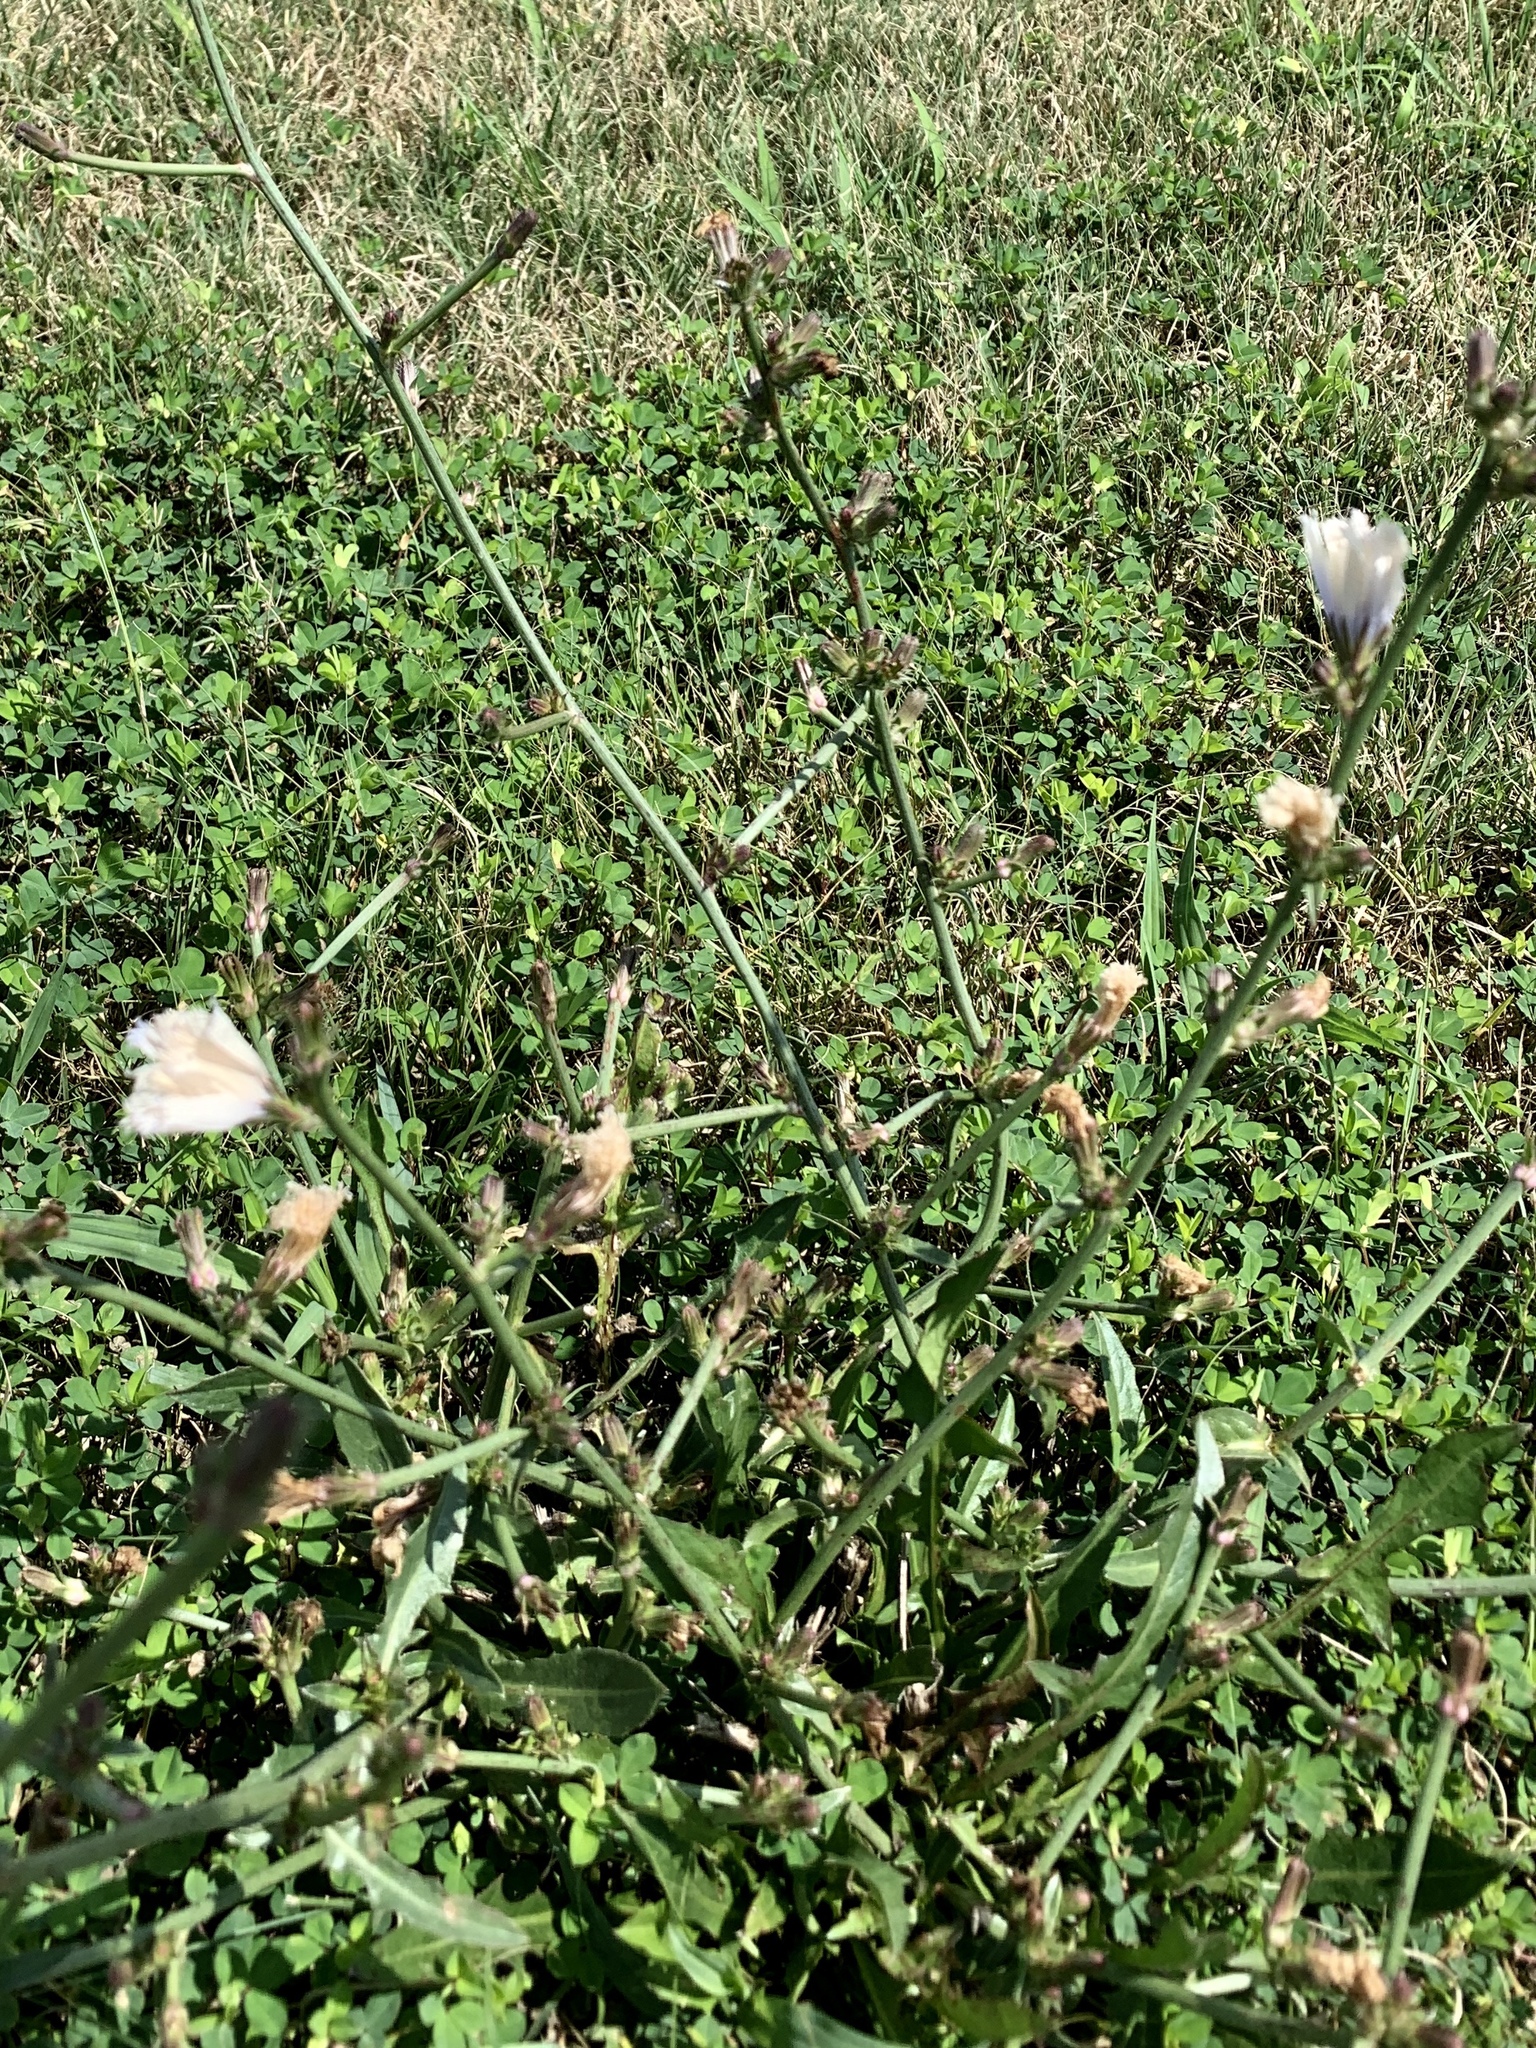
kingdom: Plantae
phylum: Tracheophyta
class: Magnoliopsida
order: Asterales
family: Asteraceae
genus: Cichorium
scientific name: Cichorium intybus
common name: Chicory
